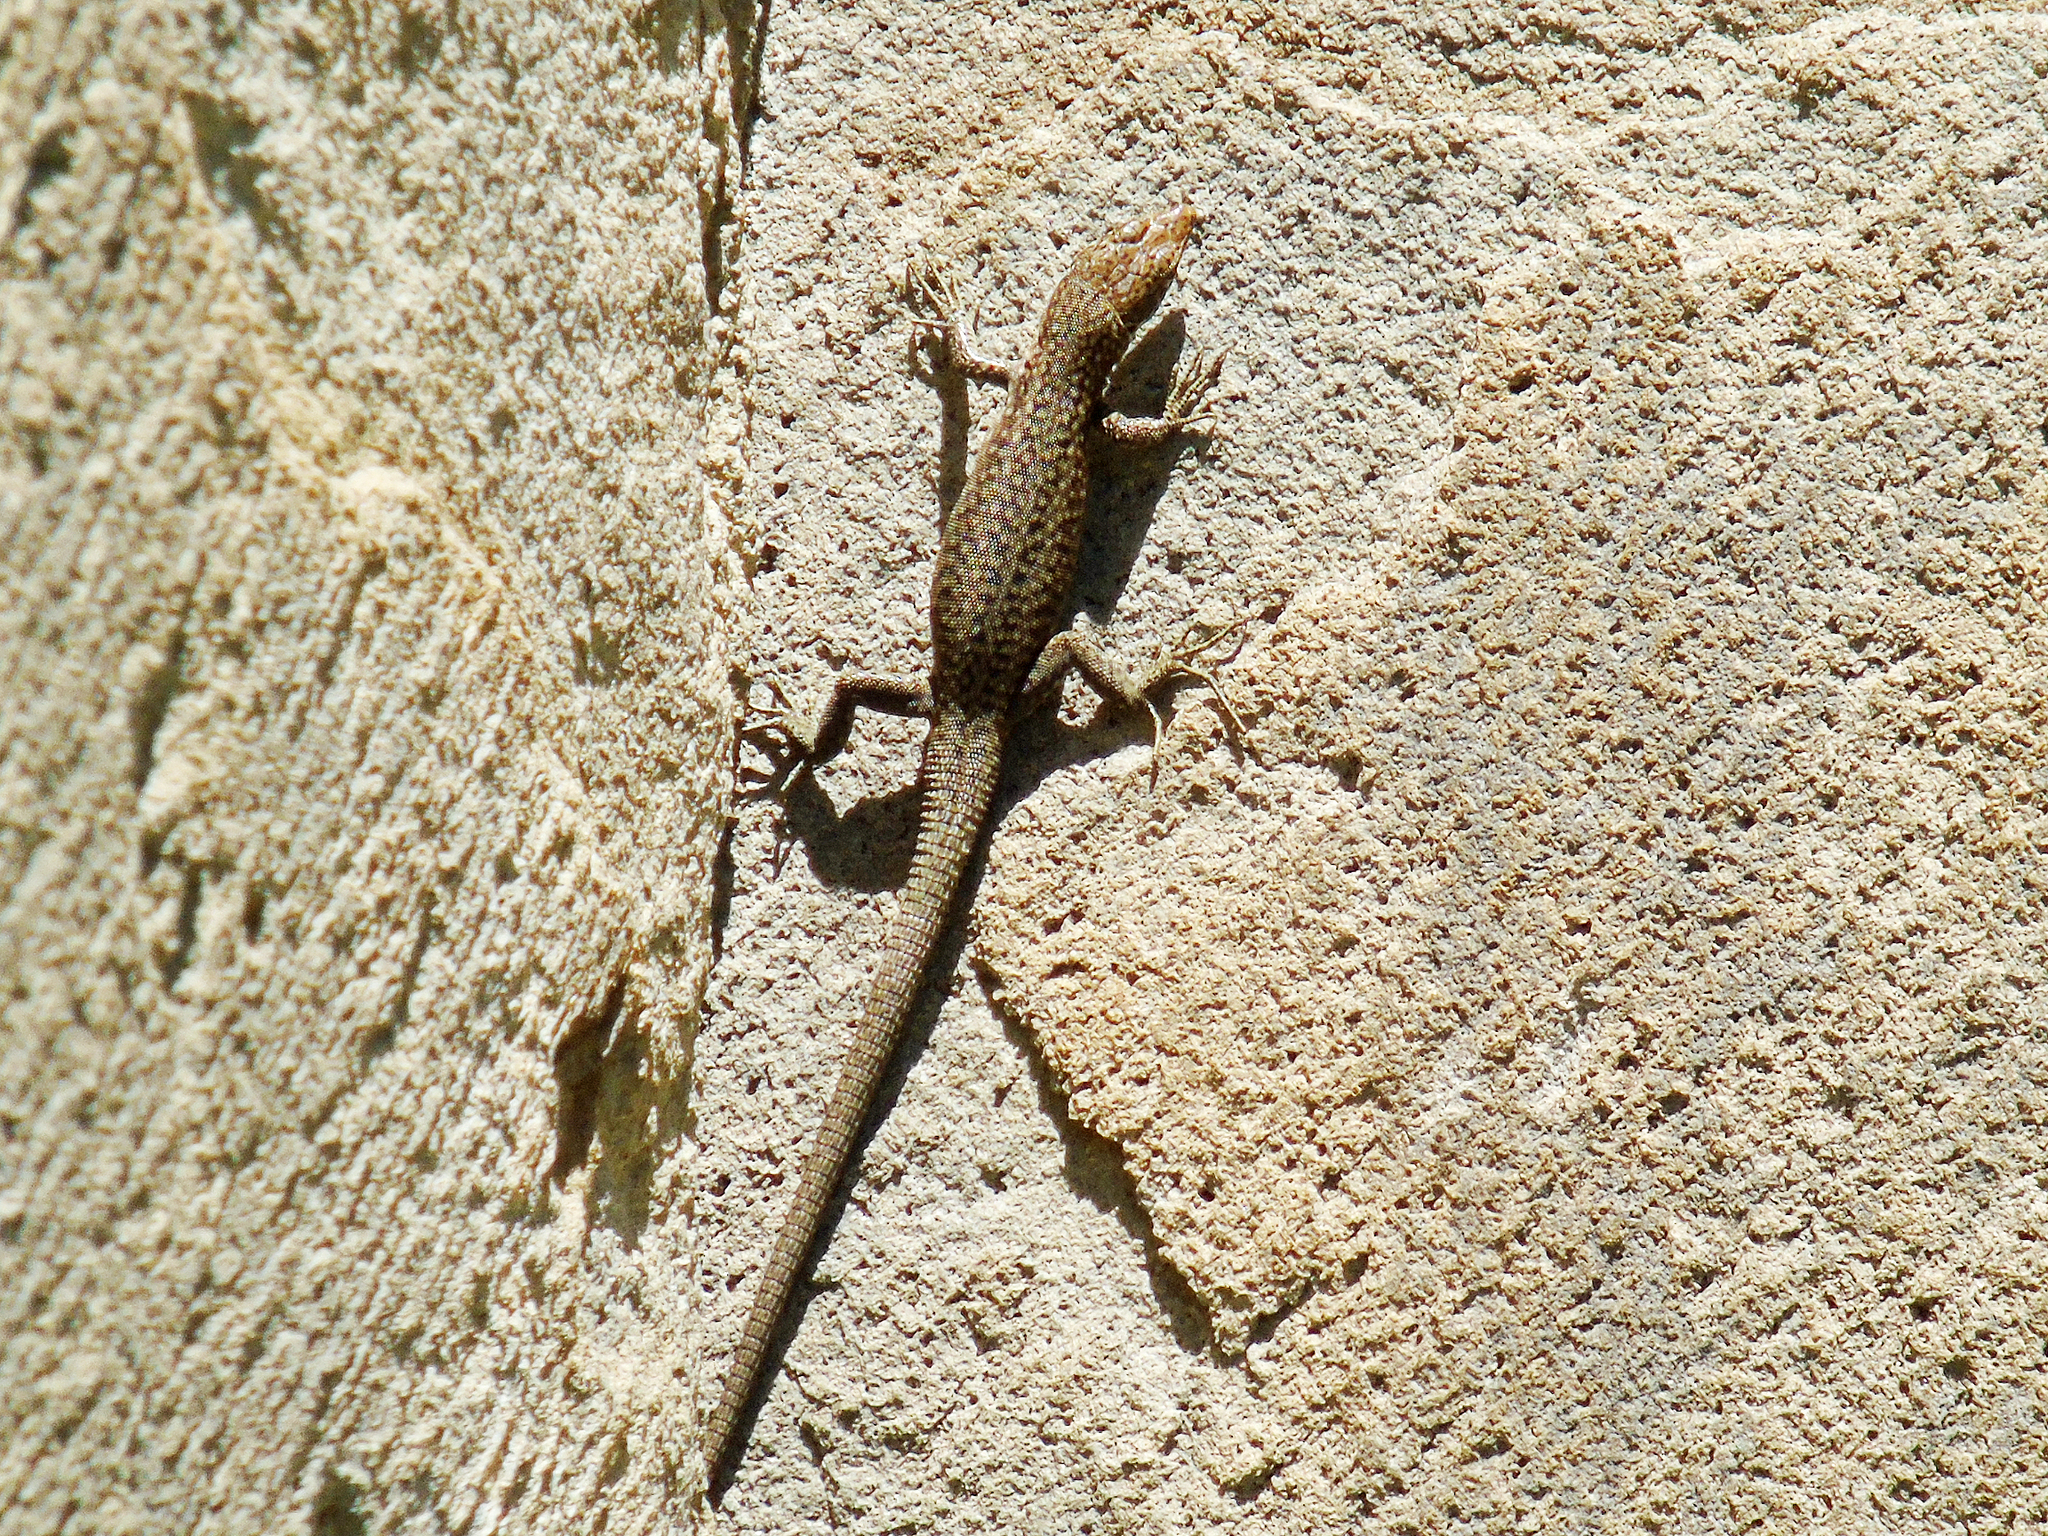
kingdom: Animalia
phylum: Chordata
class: Squamata
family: Lacertidae
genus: Darevskia
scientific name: Darevskia
